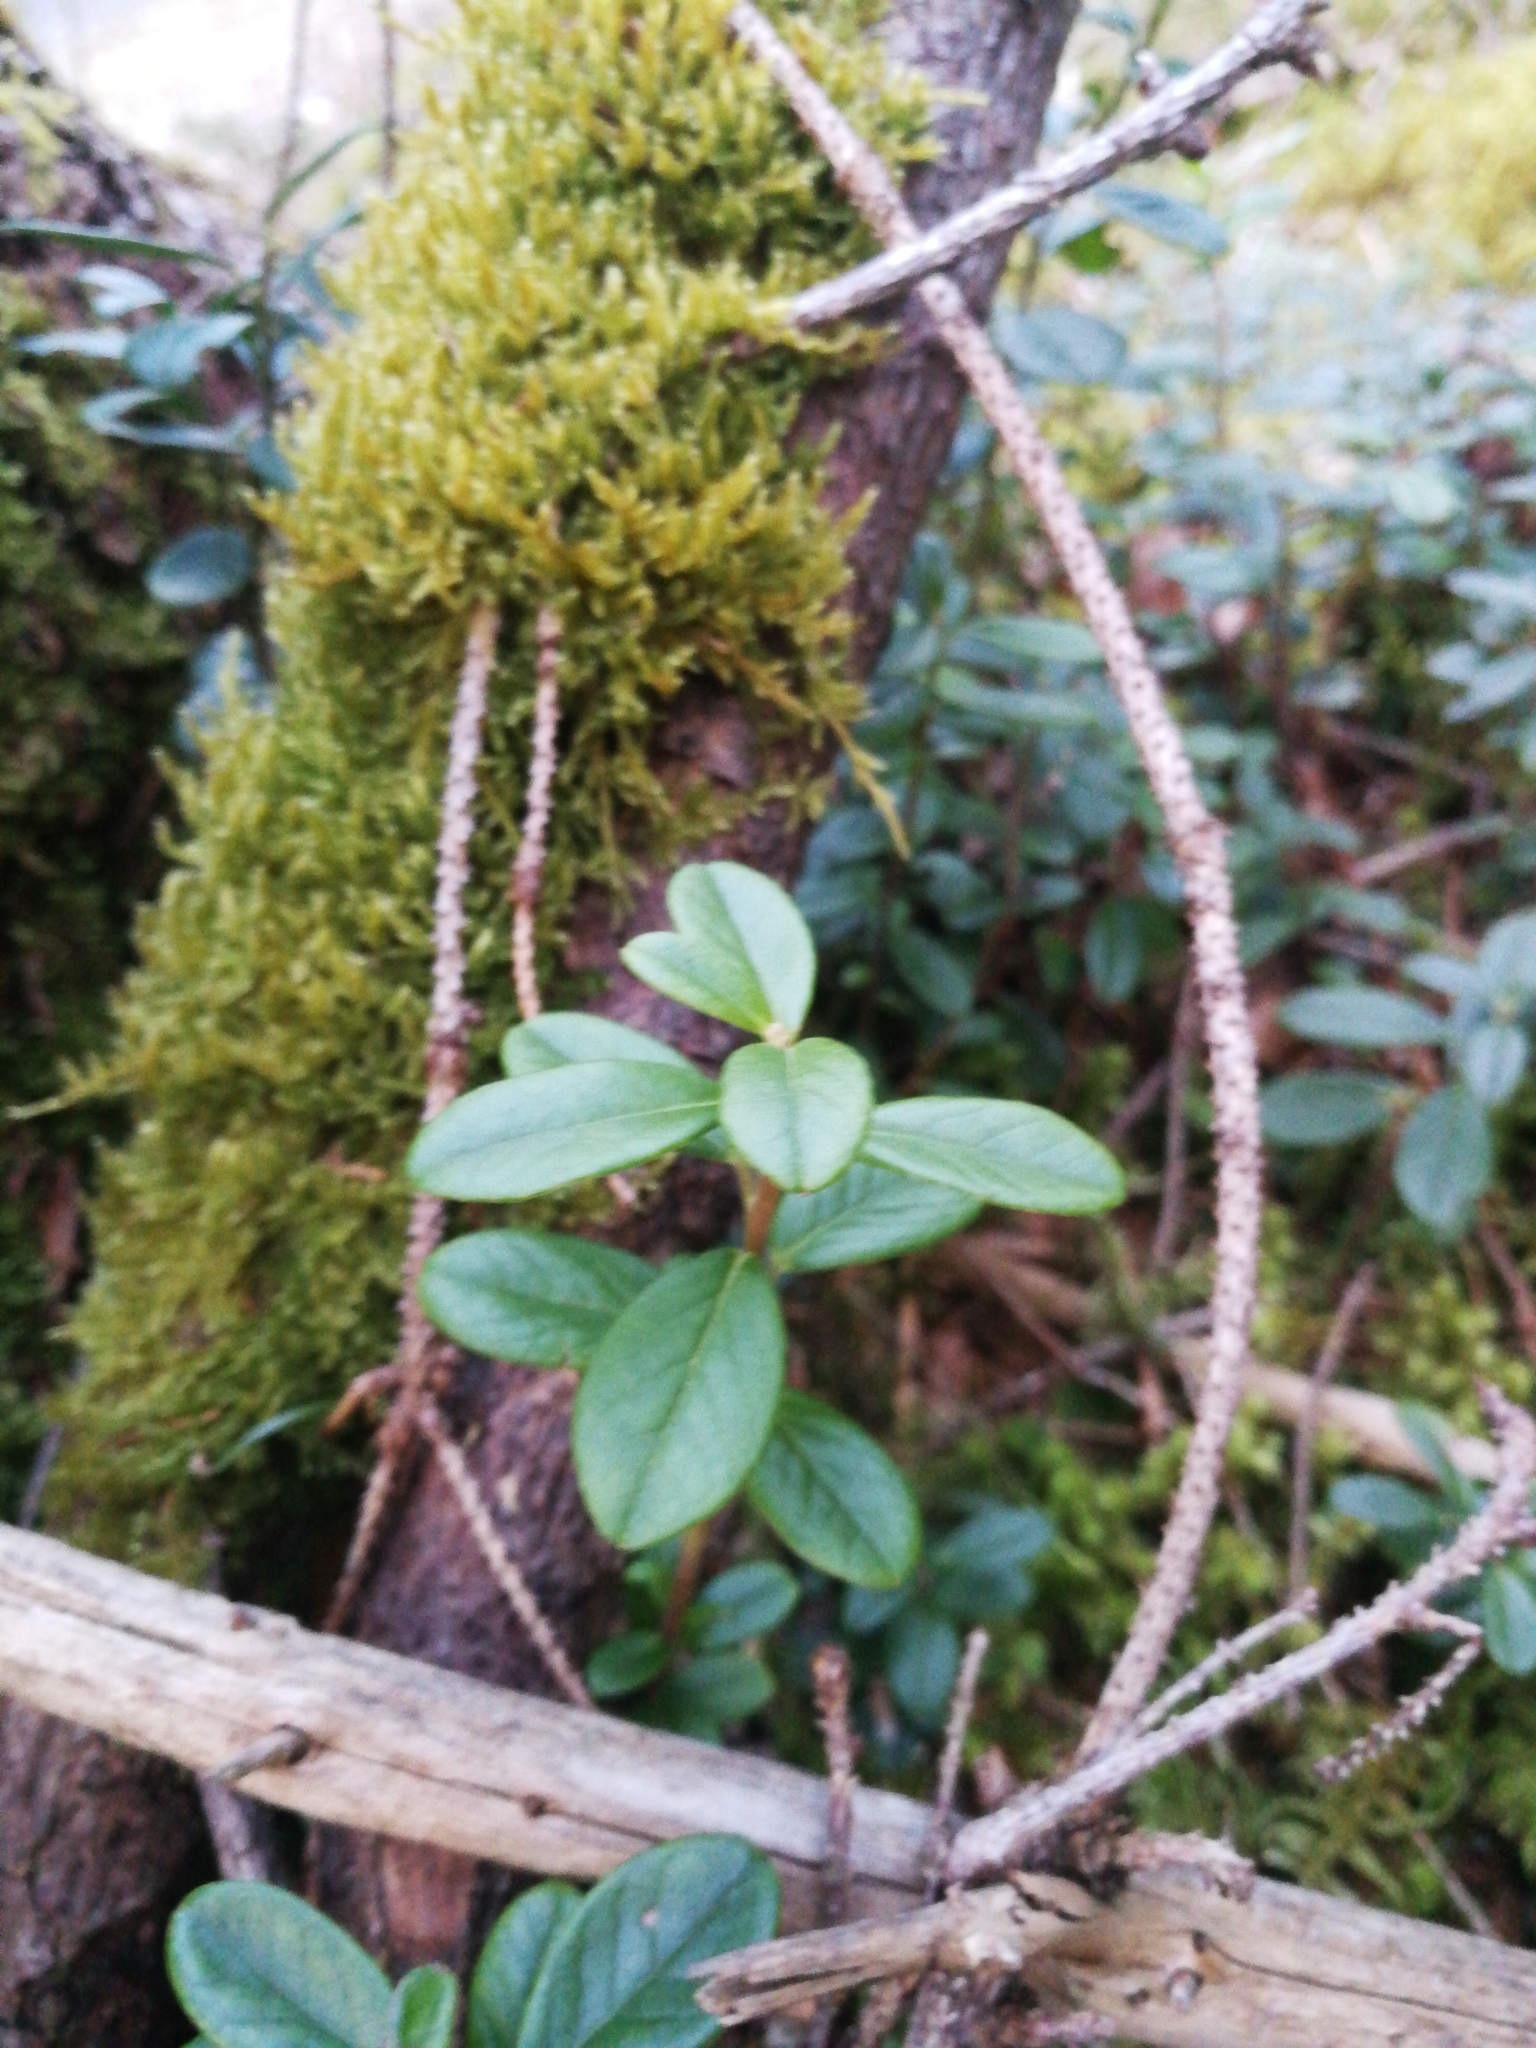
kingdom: Plantae
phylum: Tracheophyta
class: Magnoliopsida
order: Ericales
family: Ericaceae
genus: Vaccinium
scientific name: Vaccinium vitis-idaea
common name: Cowberry
